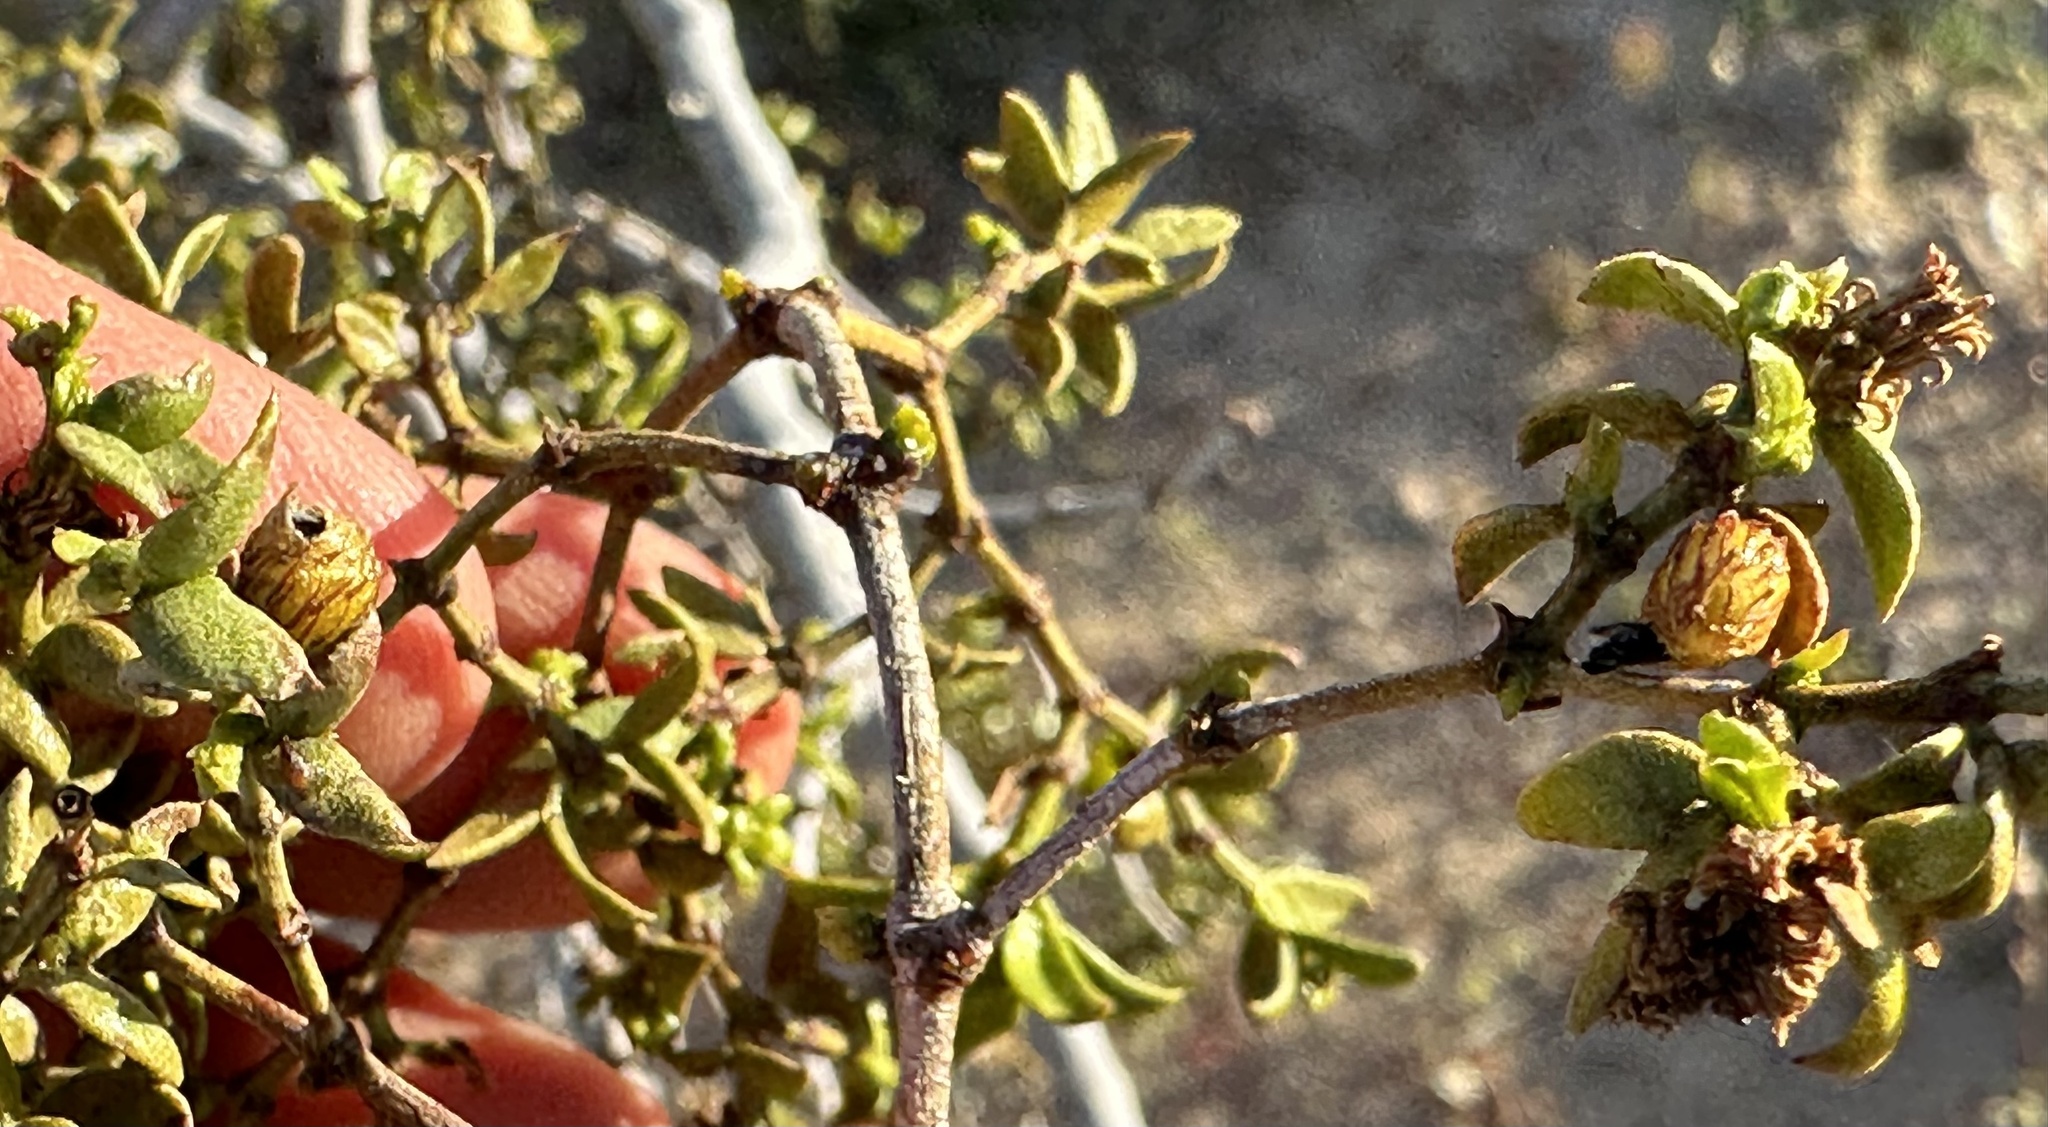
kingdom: Animalia
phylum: Arthropoda
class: Insecta
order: Diptera
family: Cecidomyiidae
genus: Asphondylia
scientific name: Asphondylia resinosa
